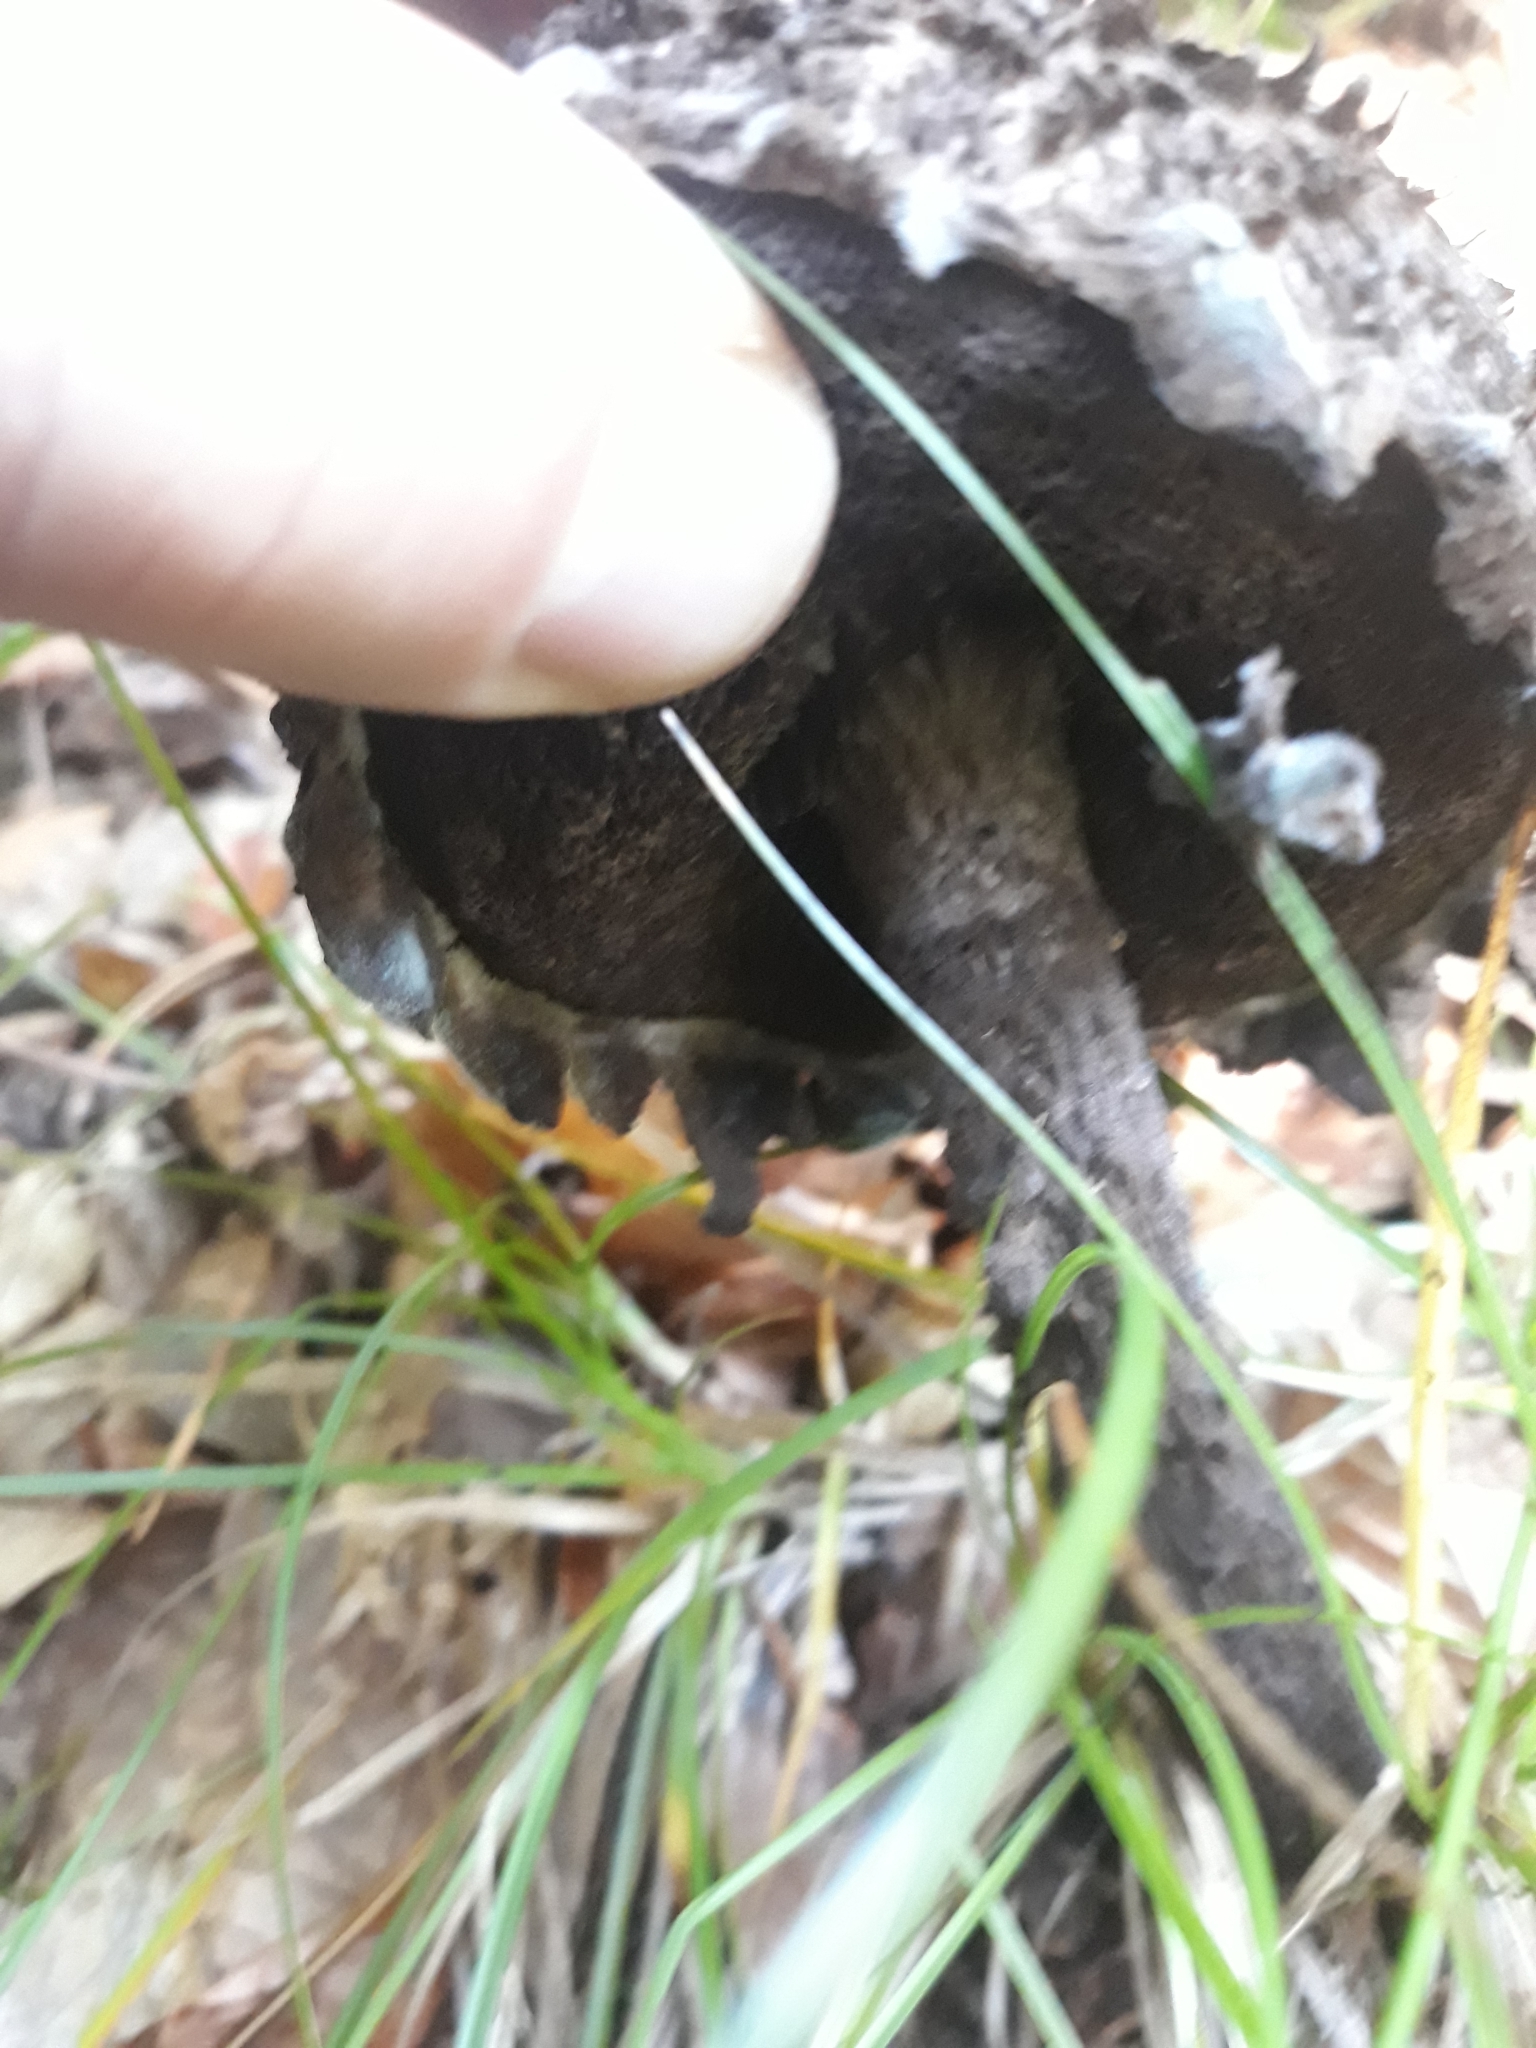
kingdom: Fungi
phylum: Basidiomycota
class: Agaricomycetes
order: Boletales
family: Boletaceae
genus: Strobilomyces
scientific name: Strobilomyces strobilaceus
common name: Old man of the woods
